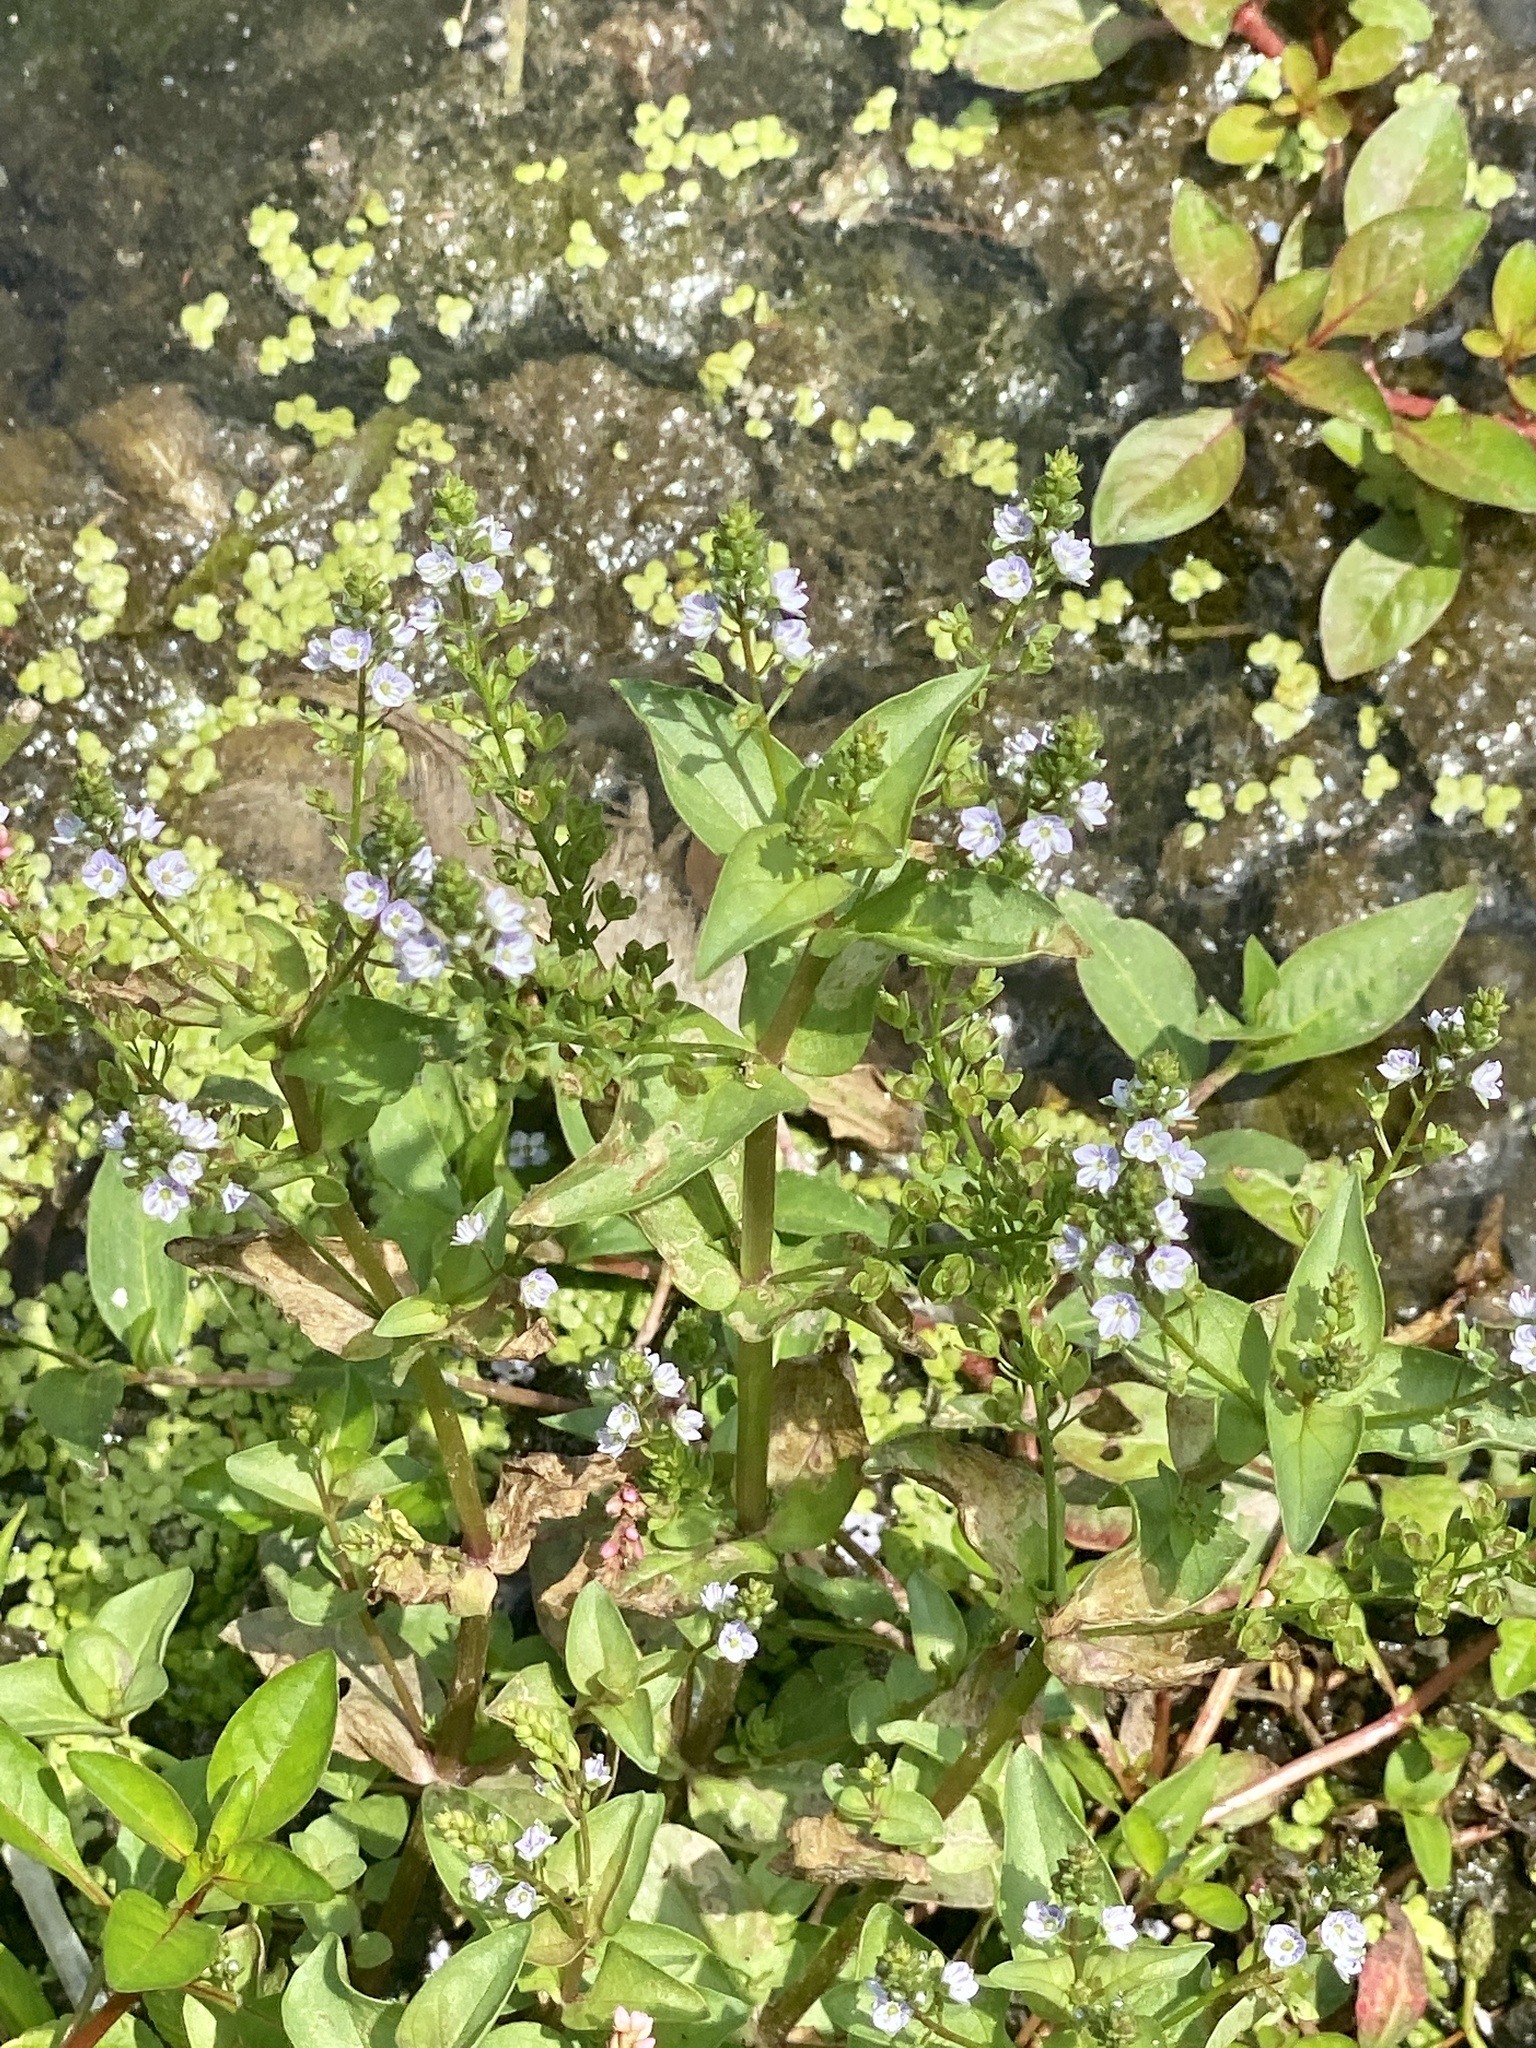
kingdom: Plantae
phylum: Tracheophyta
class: Magnoliopsida
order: Lamiales
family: Plantaginaceae
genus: Veronica
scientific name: Veronica anagallis-aquatica
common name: Water speedwell
